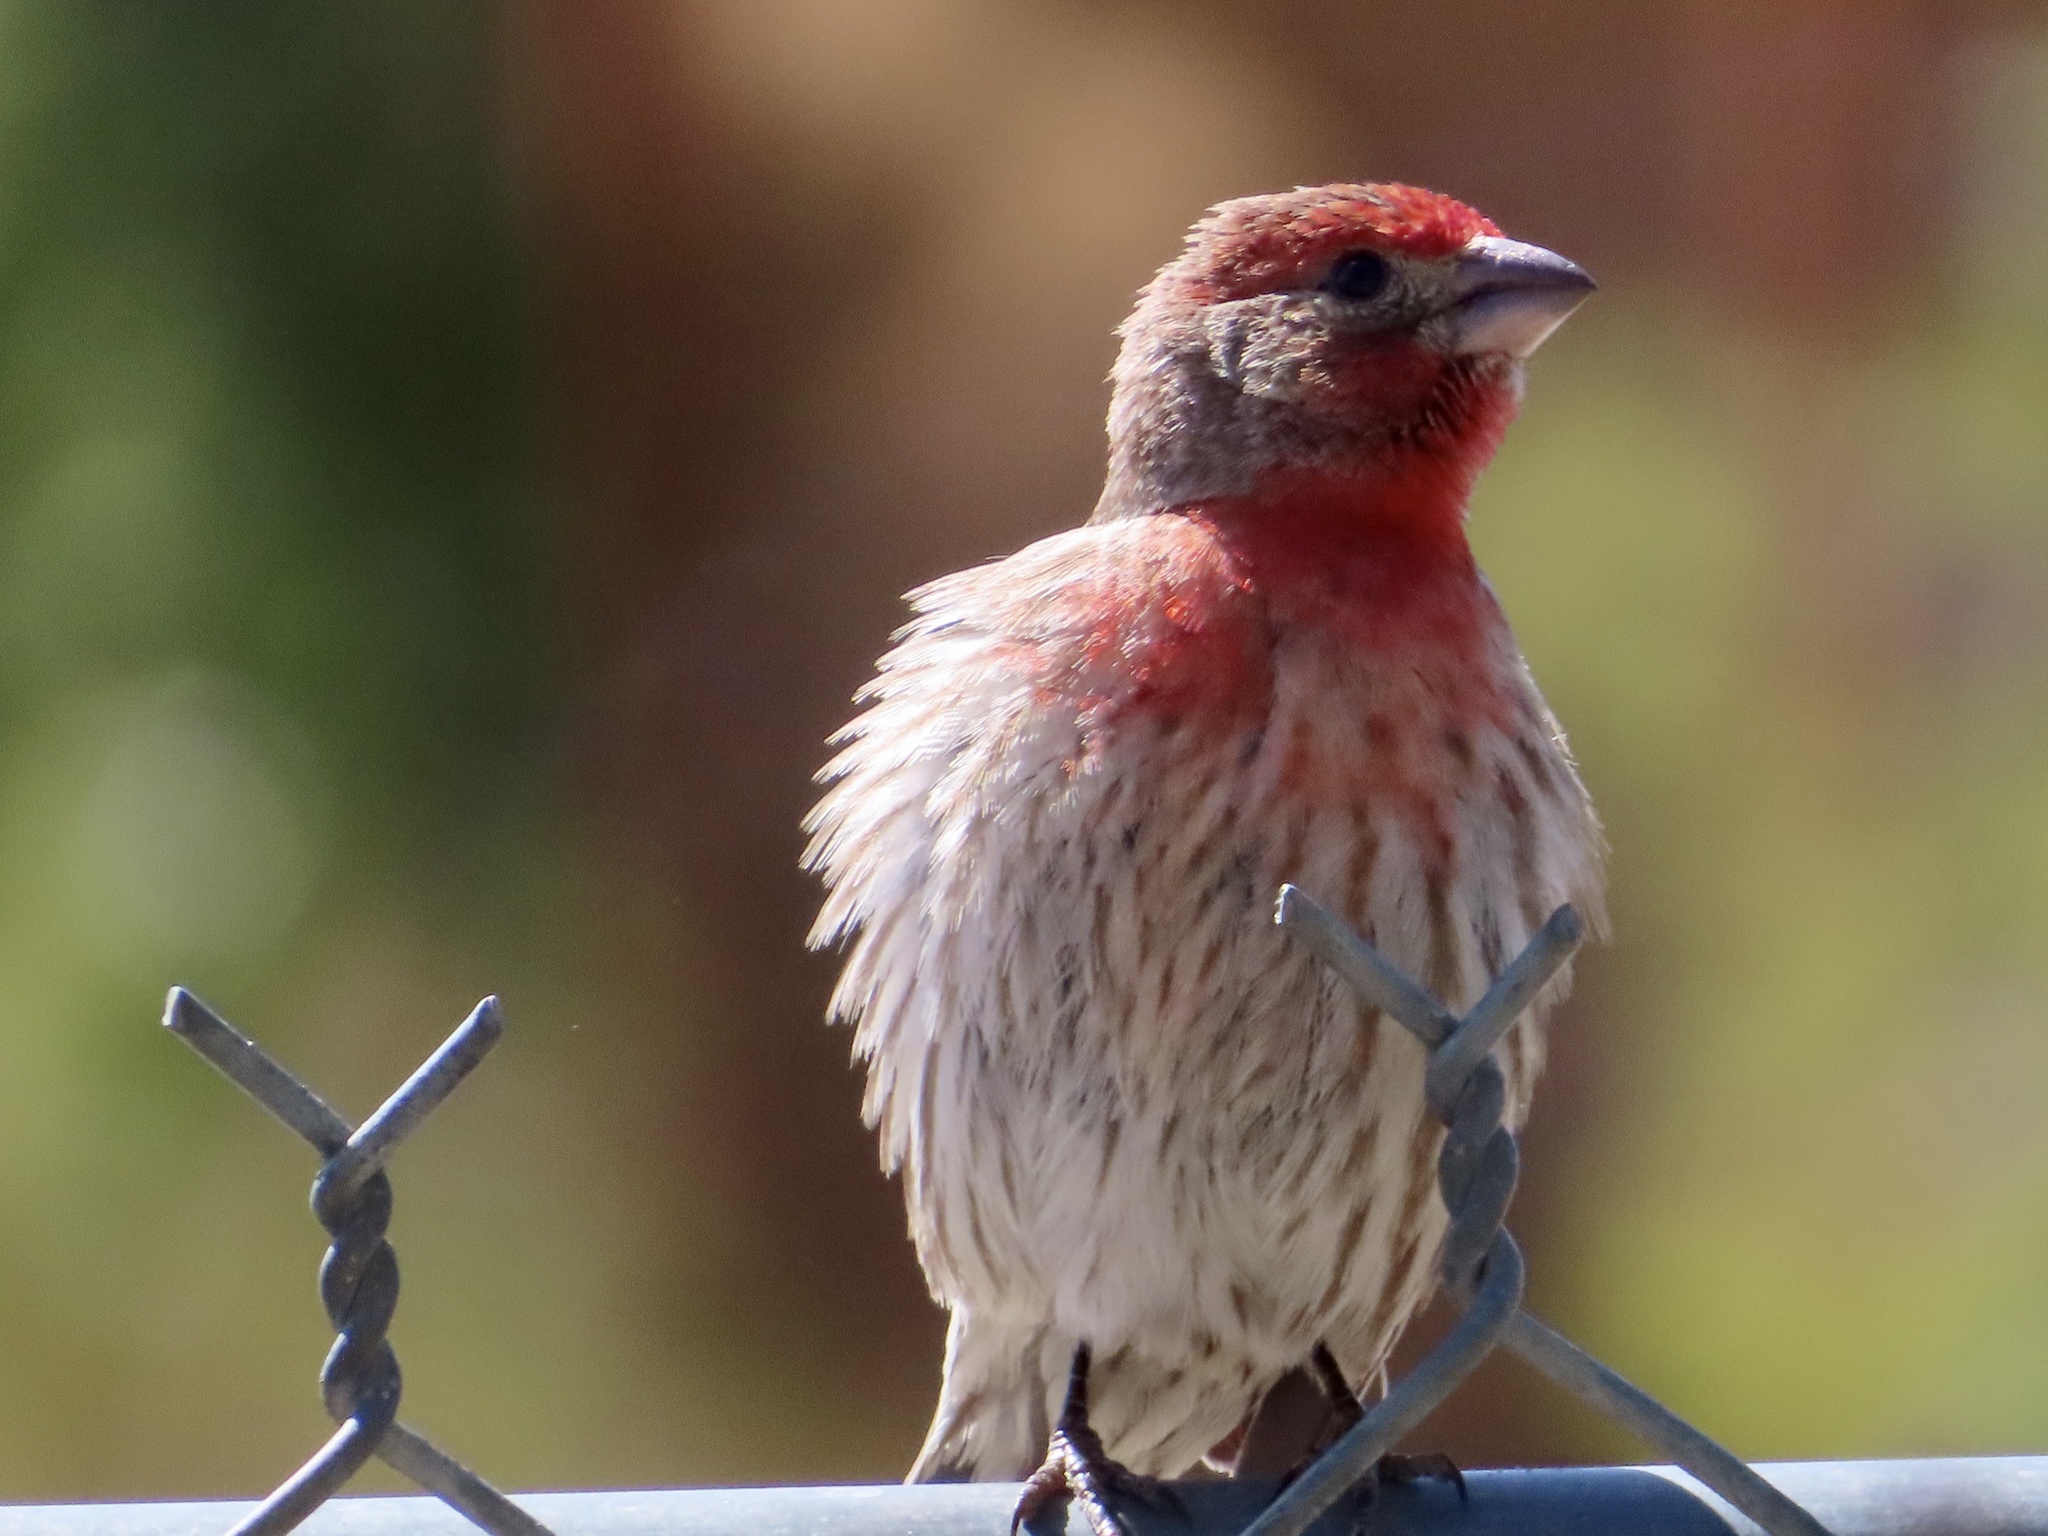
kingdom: Animalia
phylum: Chordata
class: Aves
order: Passeriformes
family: Fringillidae
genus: Haemorhous
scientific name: Haemorhous mexicanus
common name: House finch
